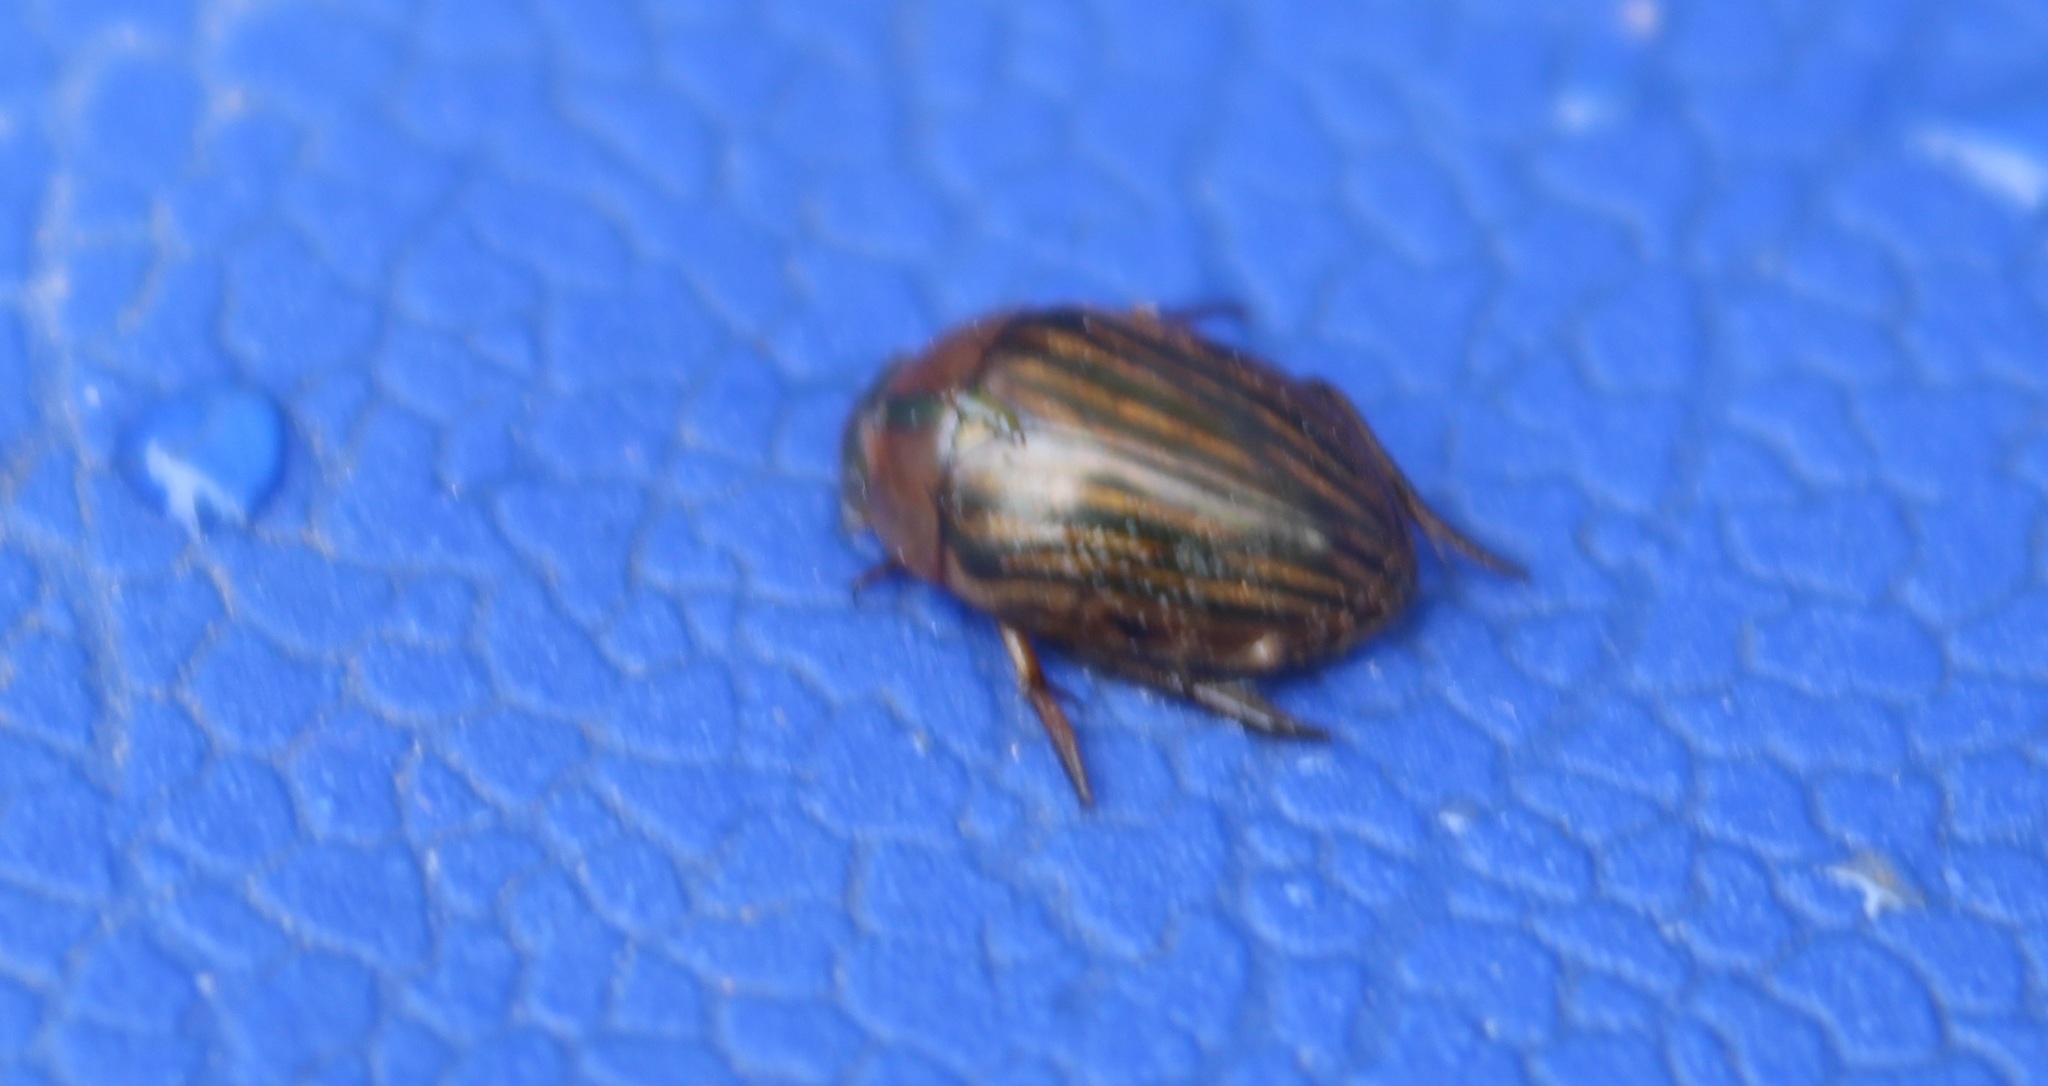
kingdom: Animalia
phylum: Arthropoda
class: Insecta
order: Coleoptera
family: Hydrophilidae
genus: Tropisternus
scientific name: Tropisternus collaris
